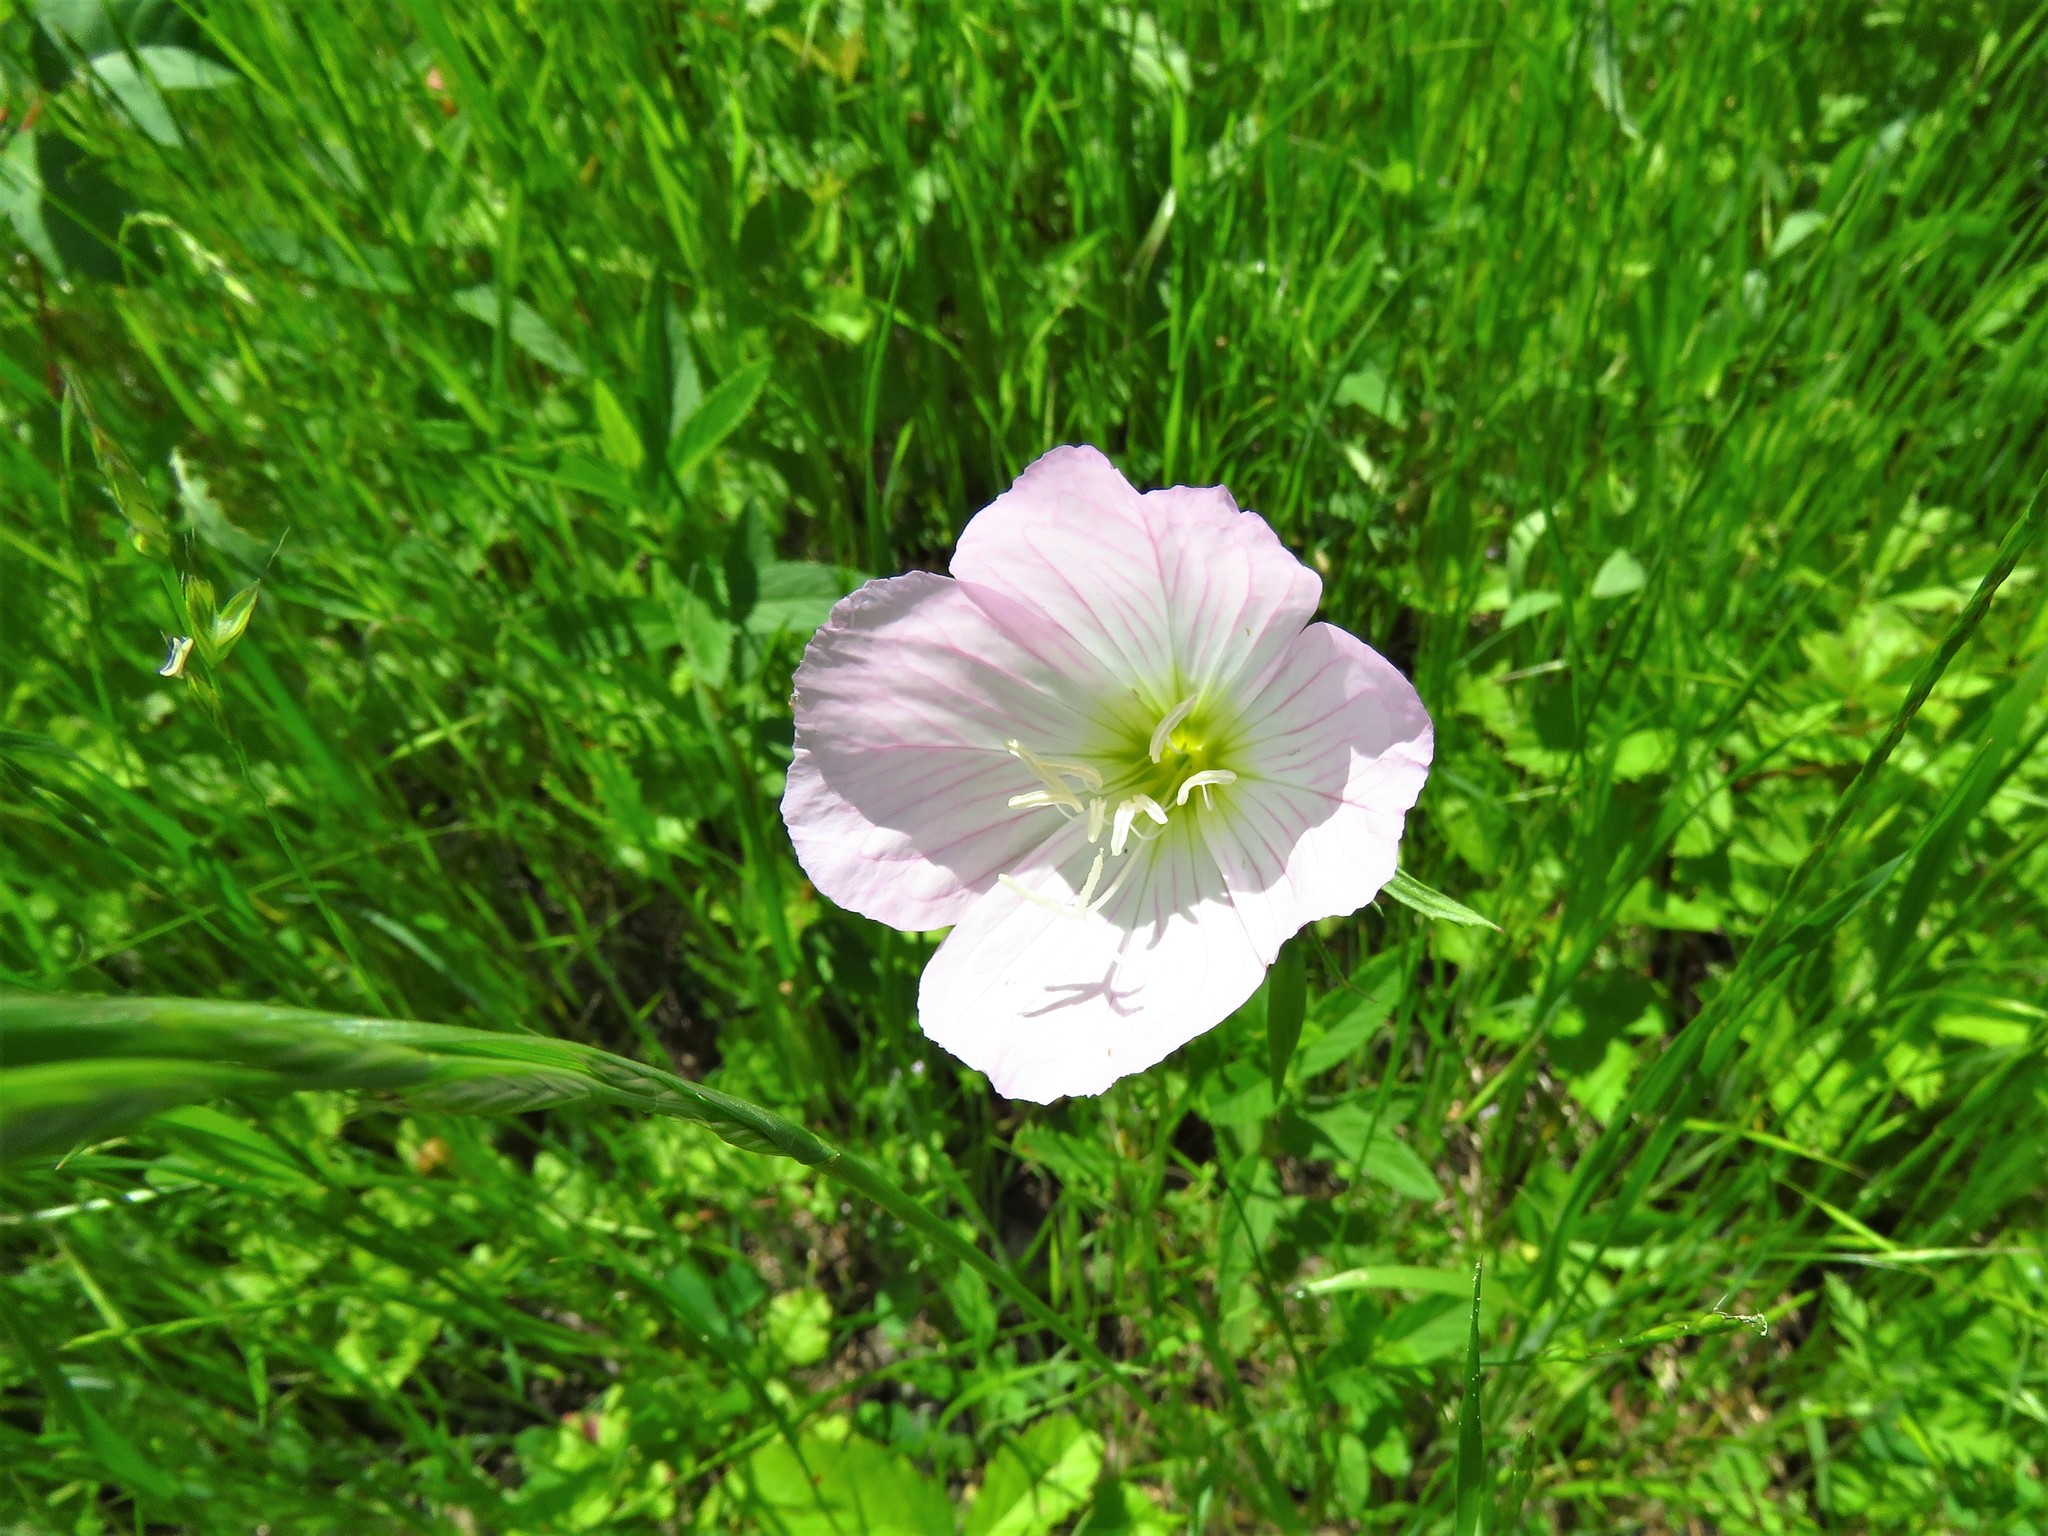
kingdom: Plantae
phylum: Tracheophyta
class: Magnoliopsida
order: Myrtales
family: Onagraceae
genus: Oenothera
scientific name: Oenothera speciosa
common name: White evening-primrose
